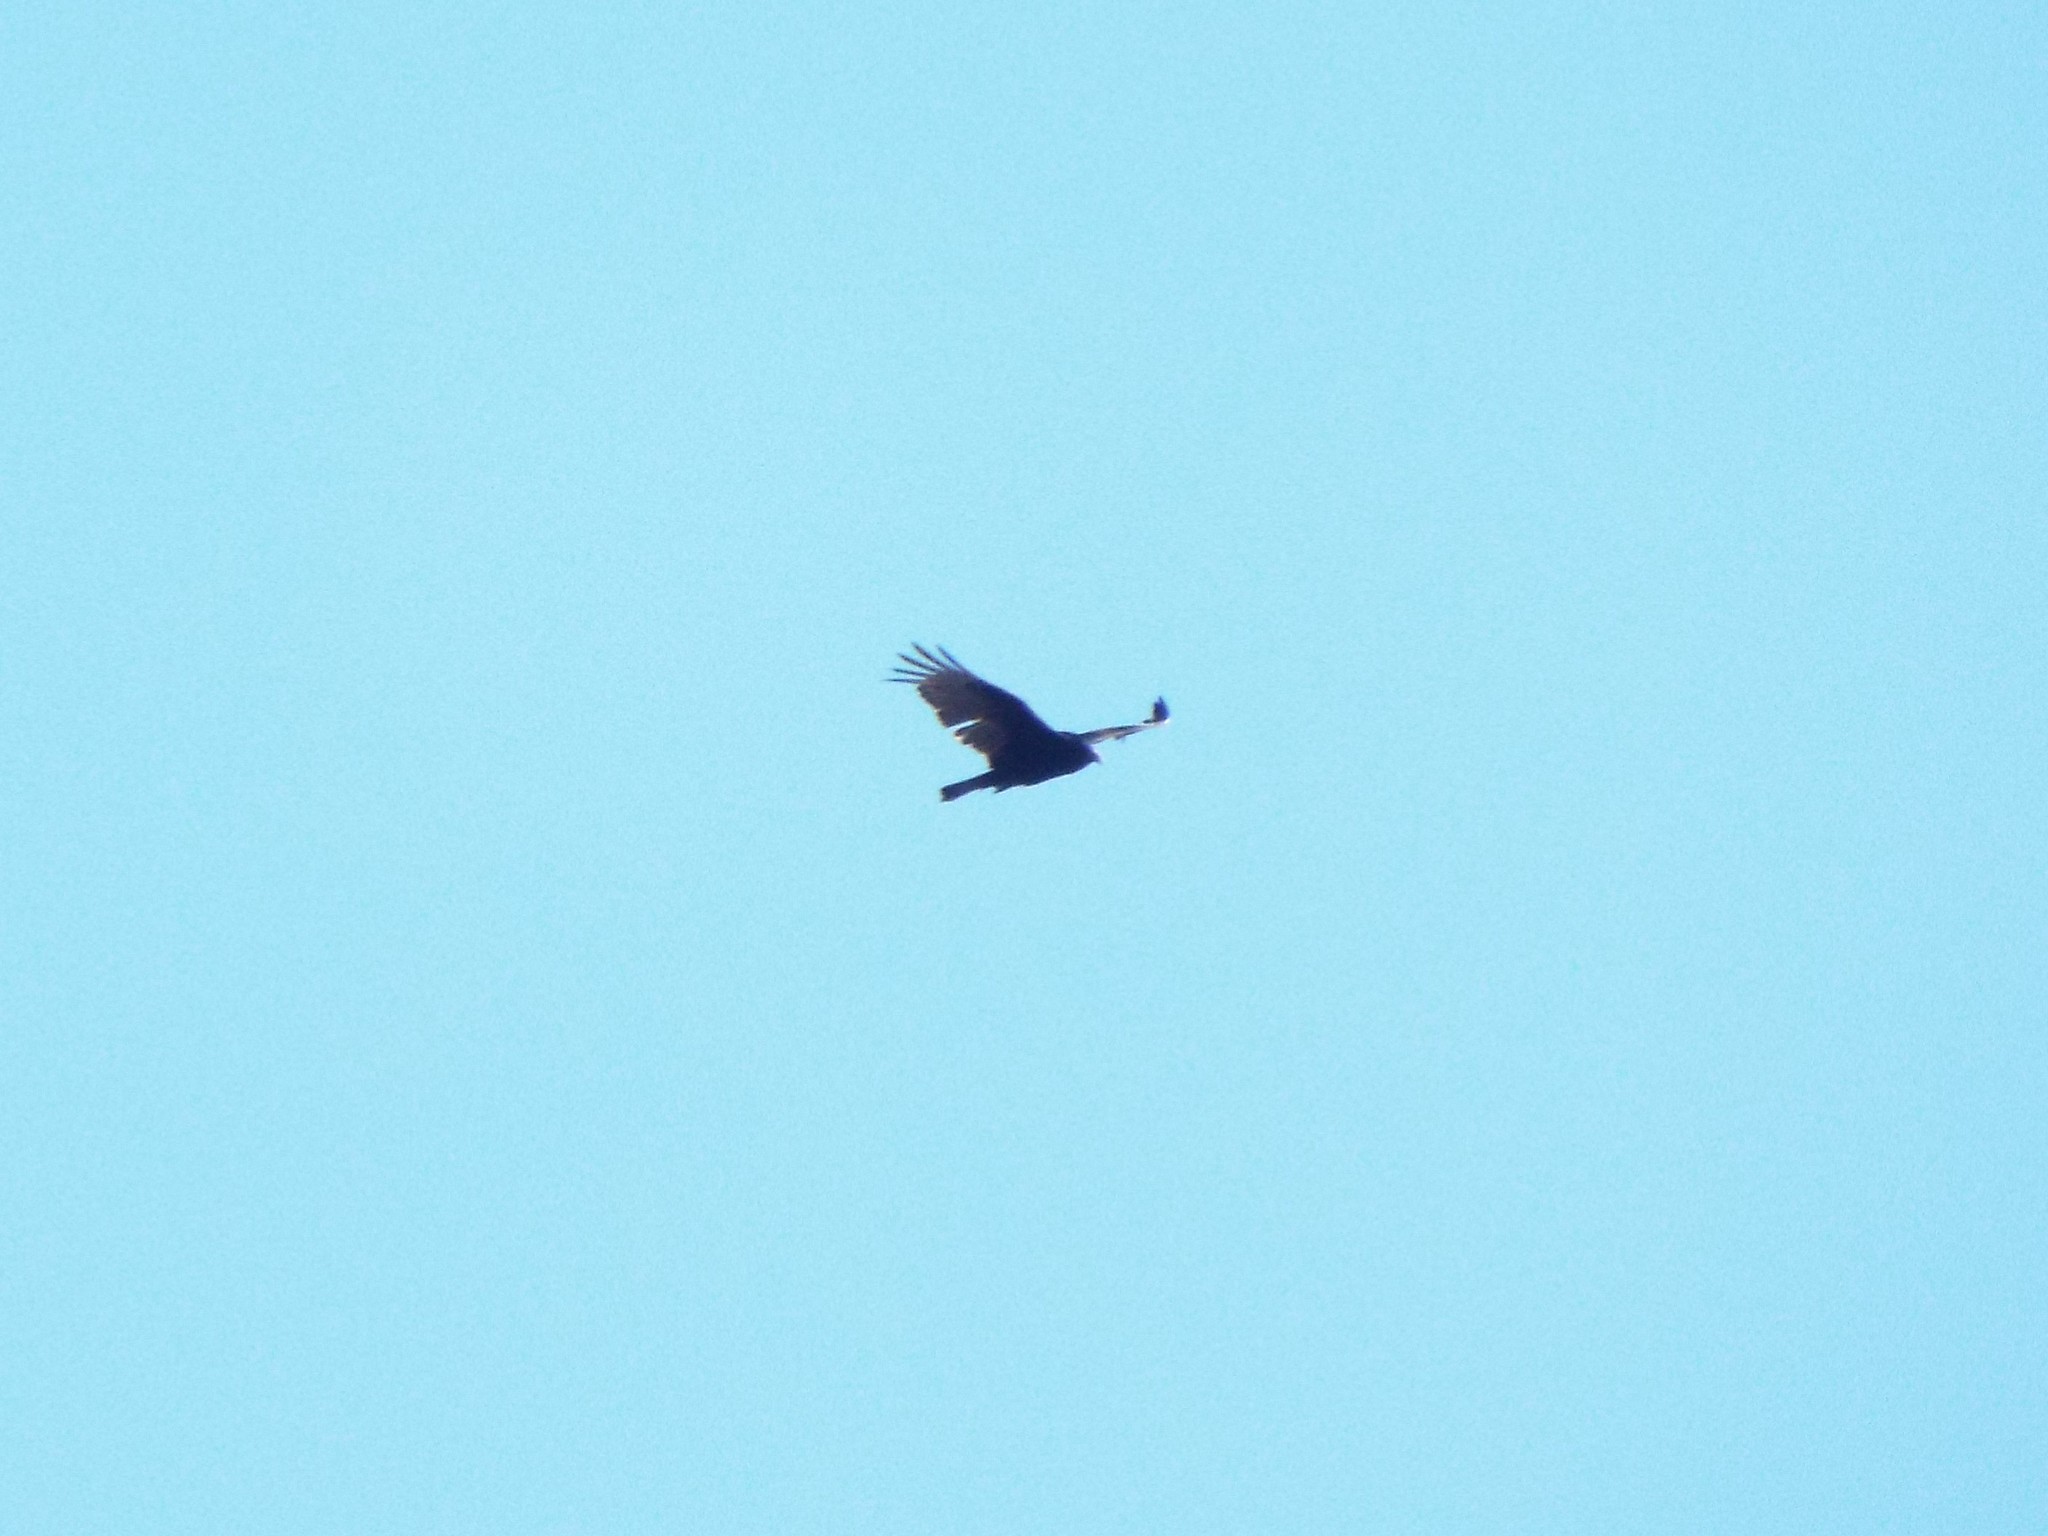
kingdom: Animalia
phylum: Chordata
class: Aves
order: Accipitriformes
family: Cathartidae
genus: Cathartes
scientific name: Cathartes aura
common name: Turkey vulture
